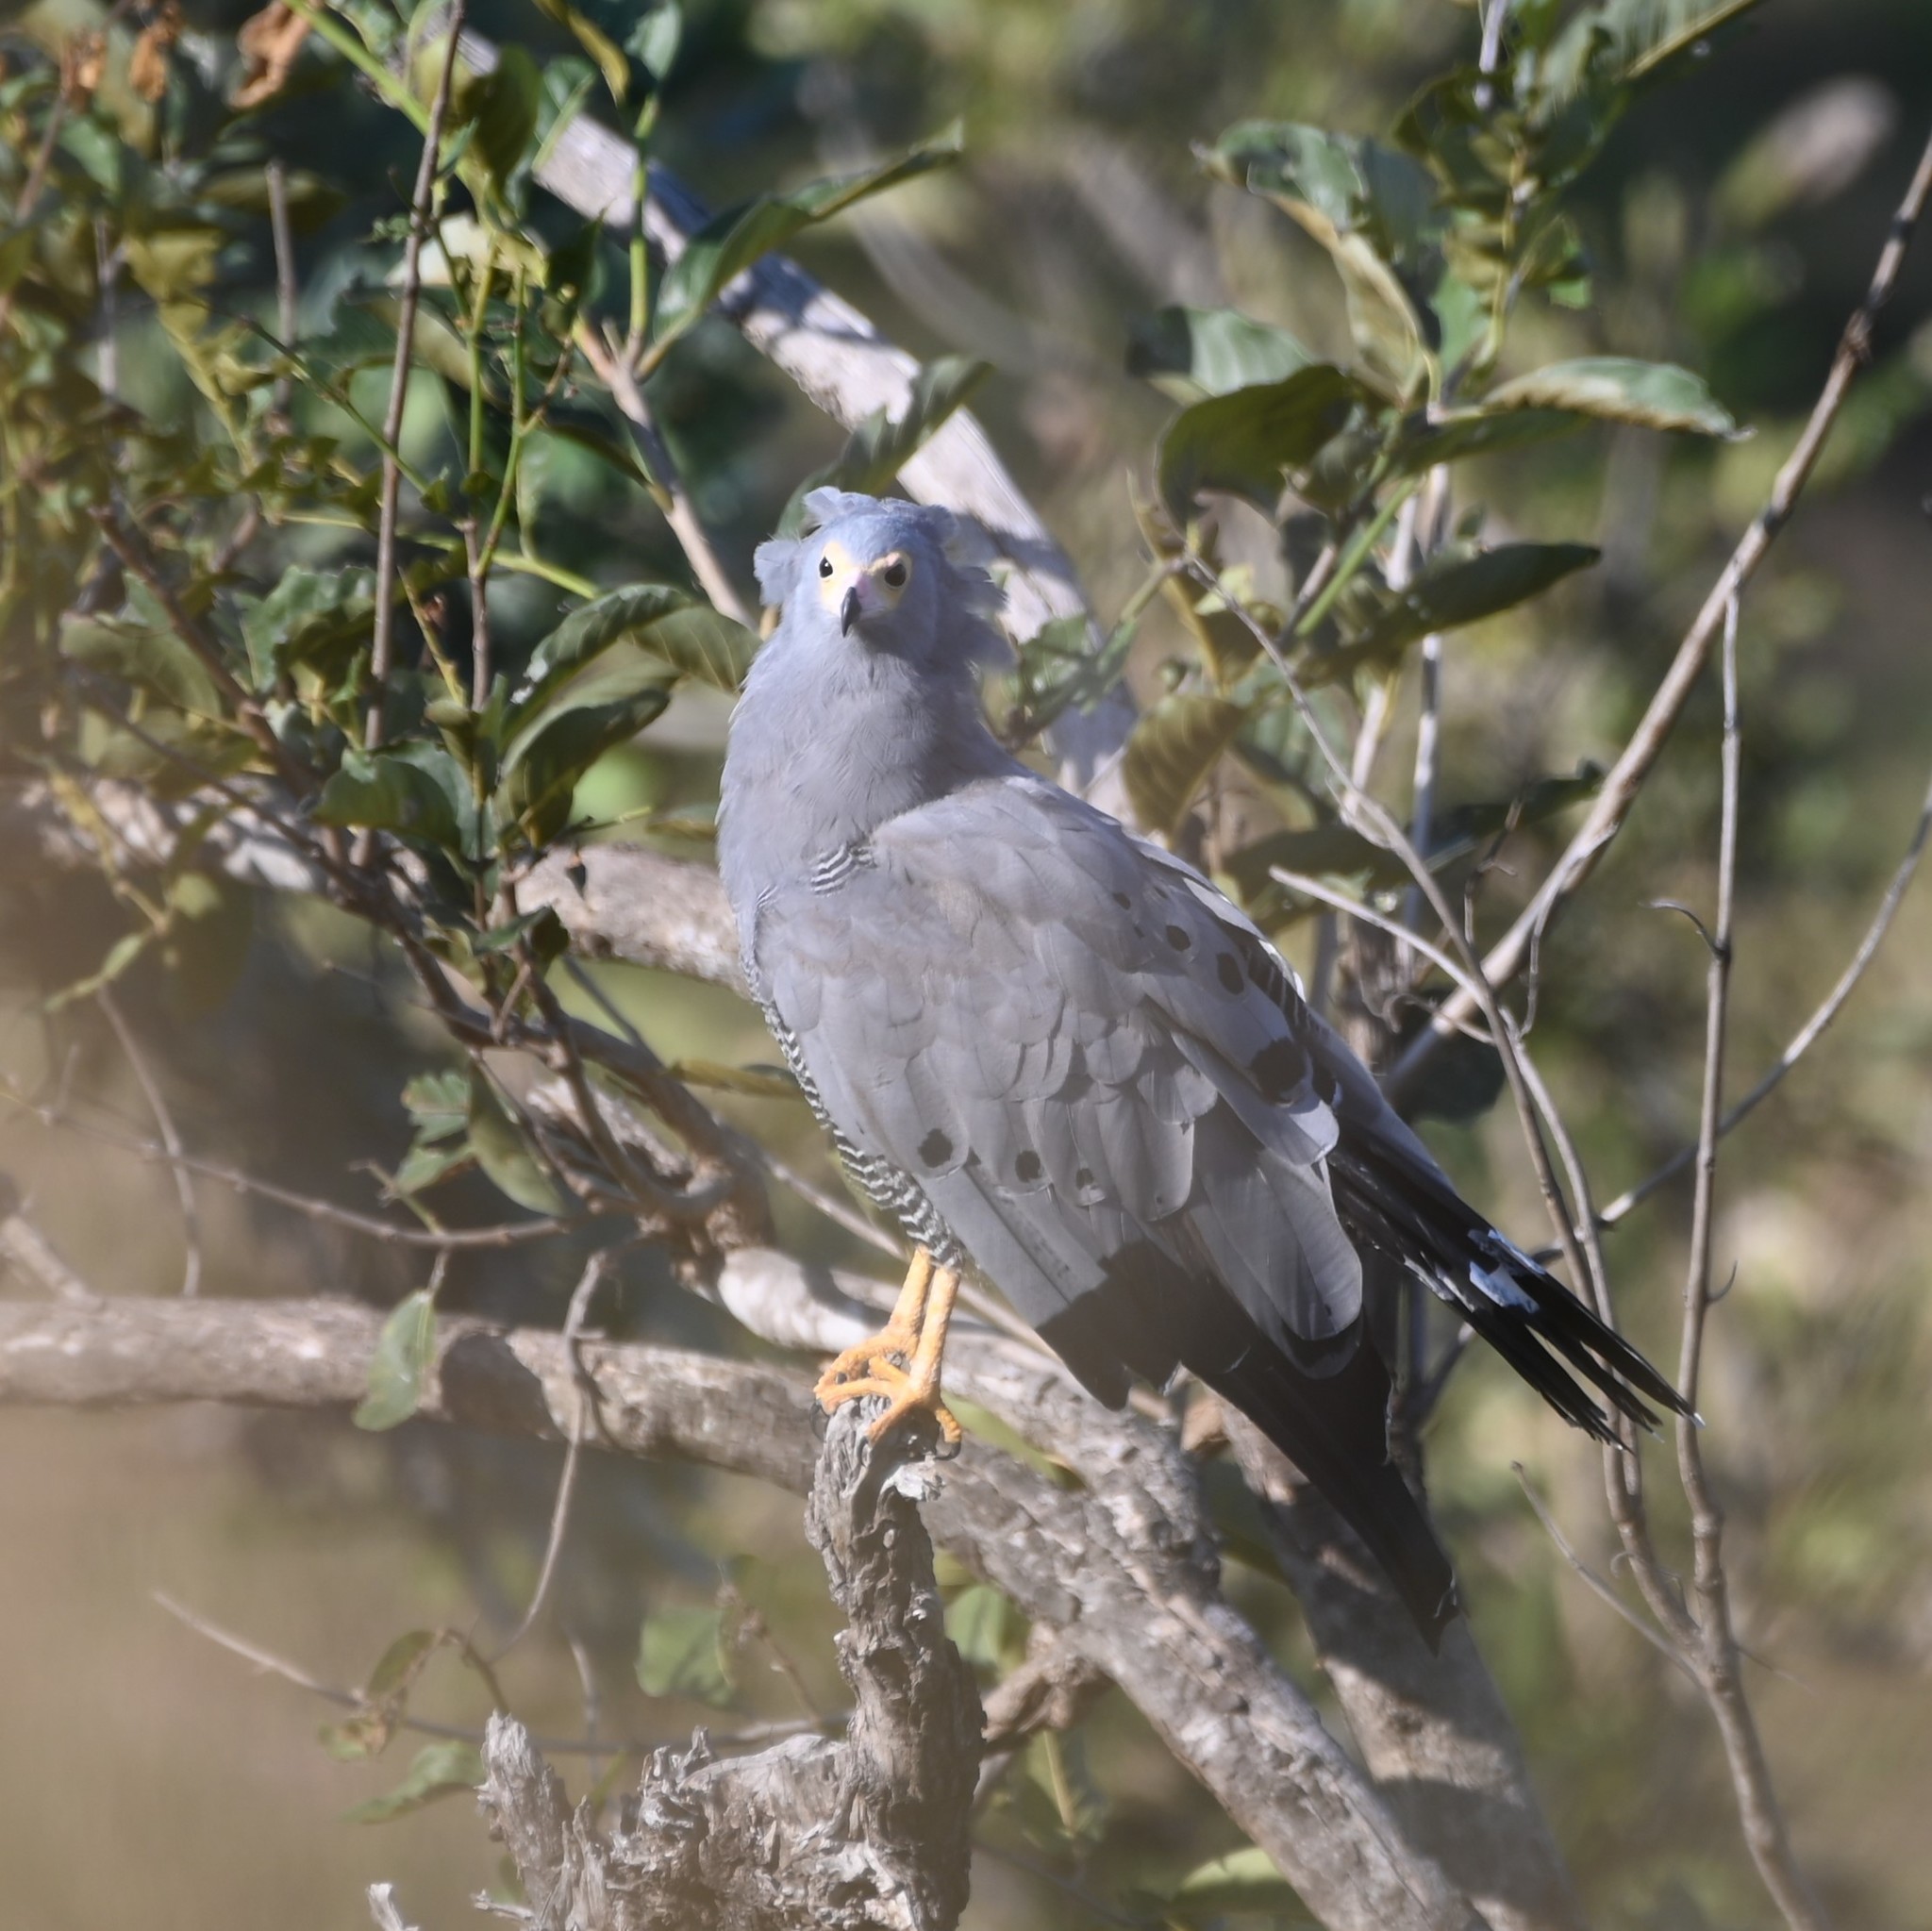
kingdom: Animalia
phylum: Chordata
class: Aves
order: Accipitriformes
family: Accipitridae
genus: Polyboroides
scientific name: Polyboroides typus
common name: African harrier-hawk
